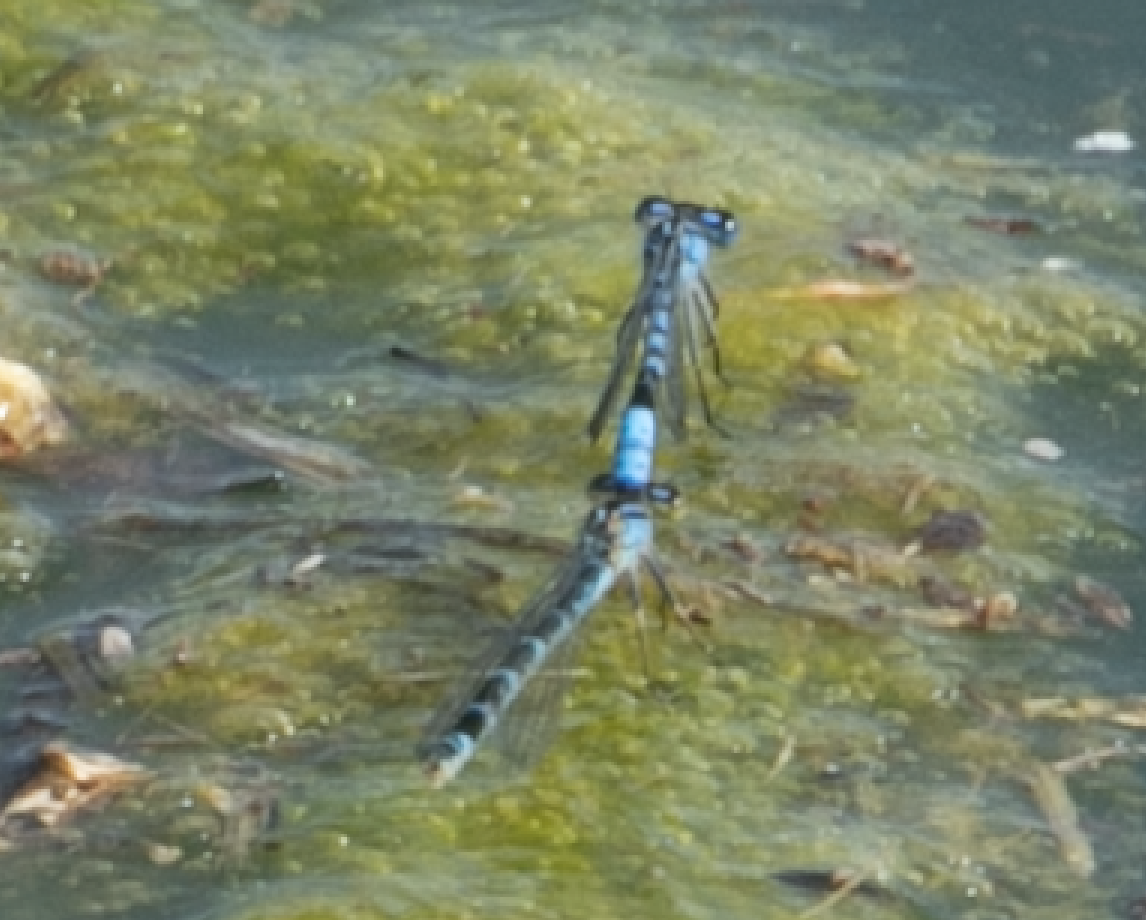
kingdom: Animalia
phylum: Arthropoda
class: Insecta
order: Odonata
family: Coenagrionidae
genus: Enallagma
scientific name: Enallagma cyathigerum
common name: Common blue damselfly
